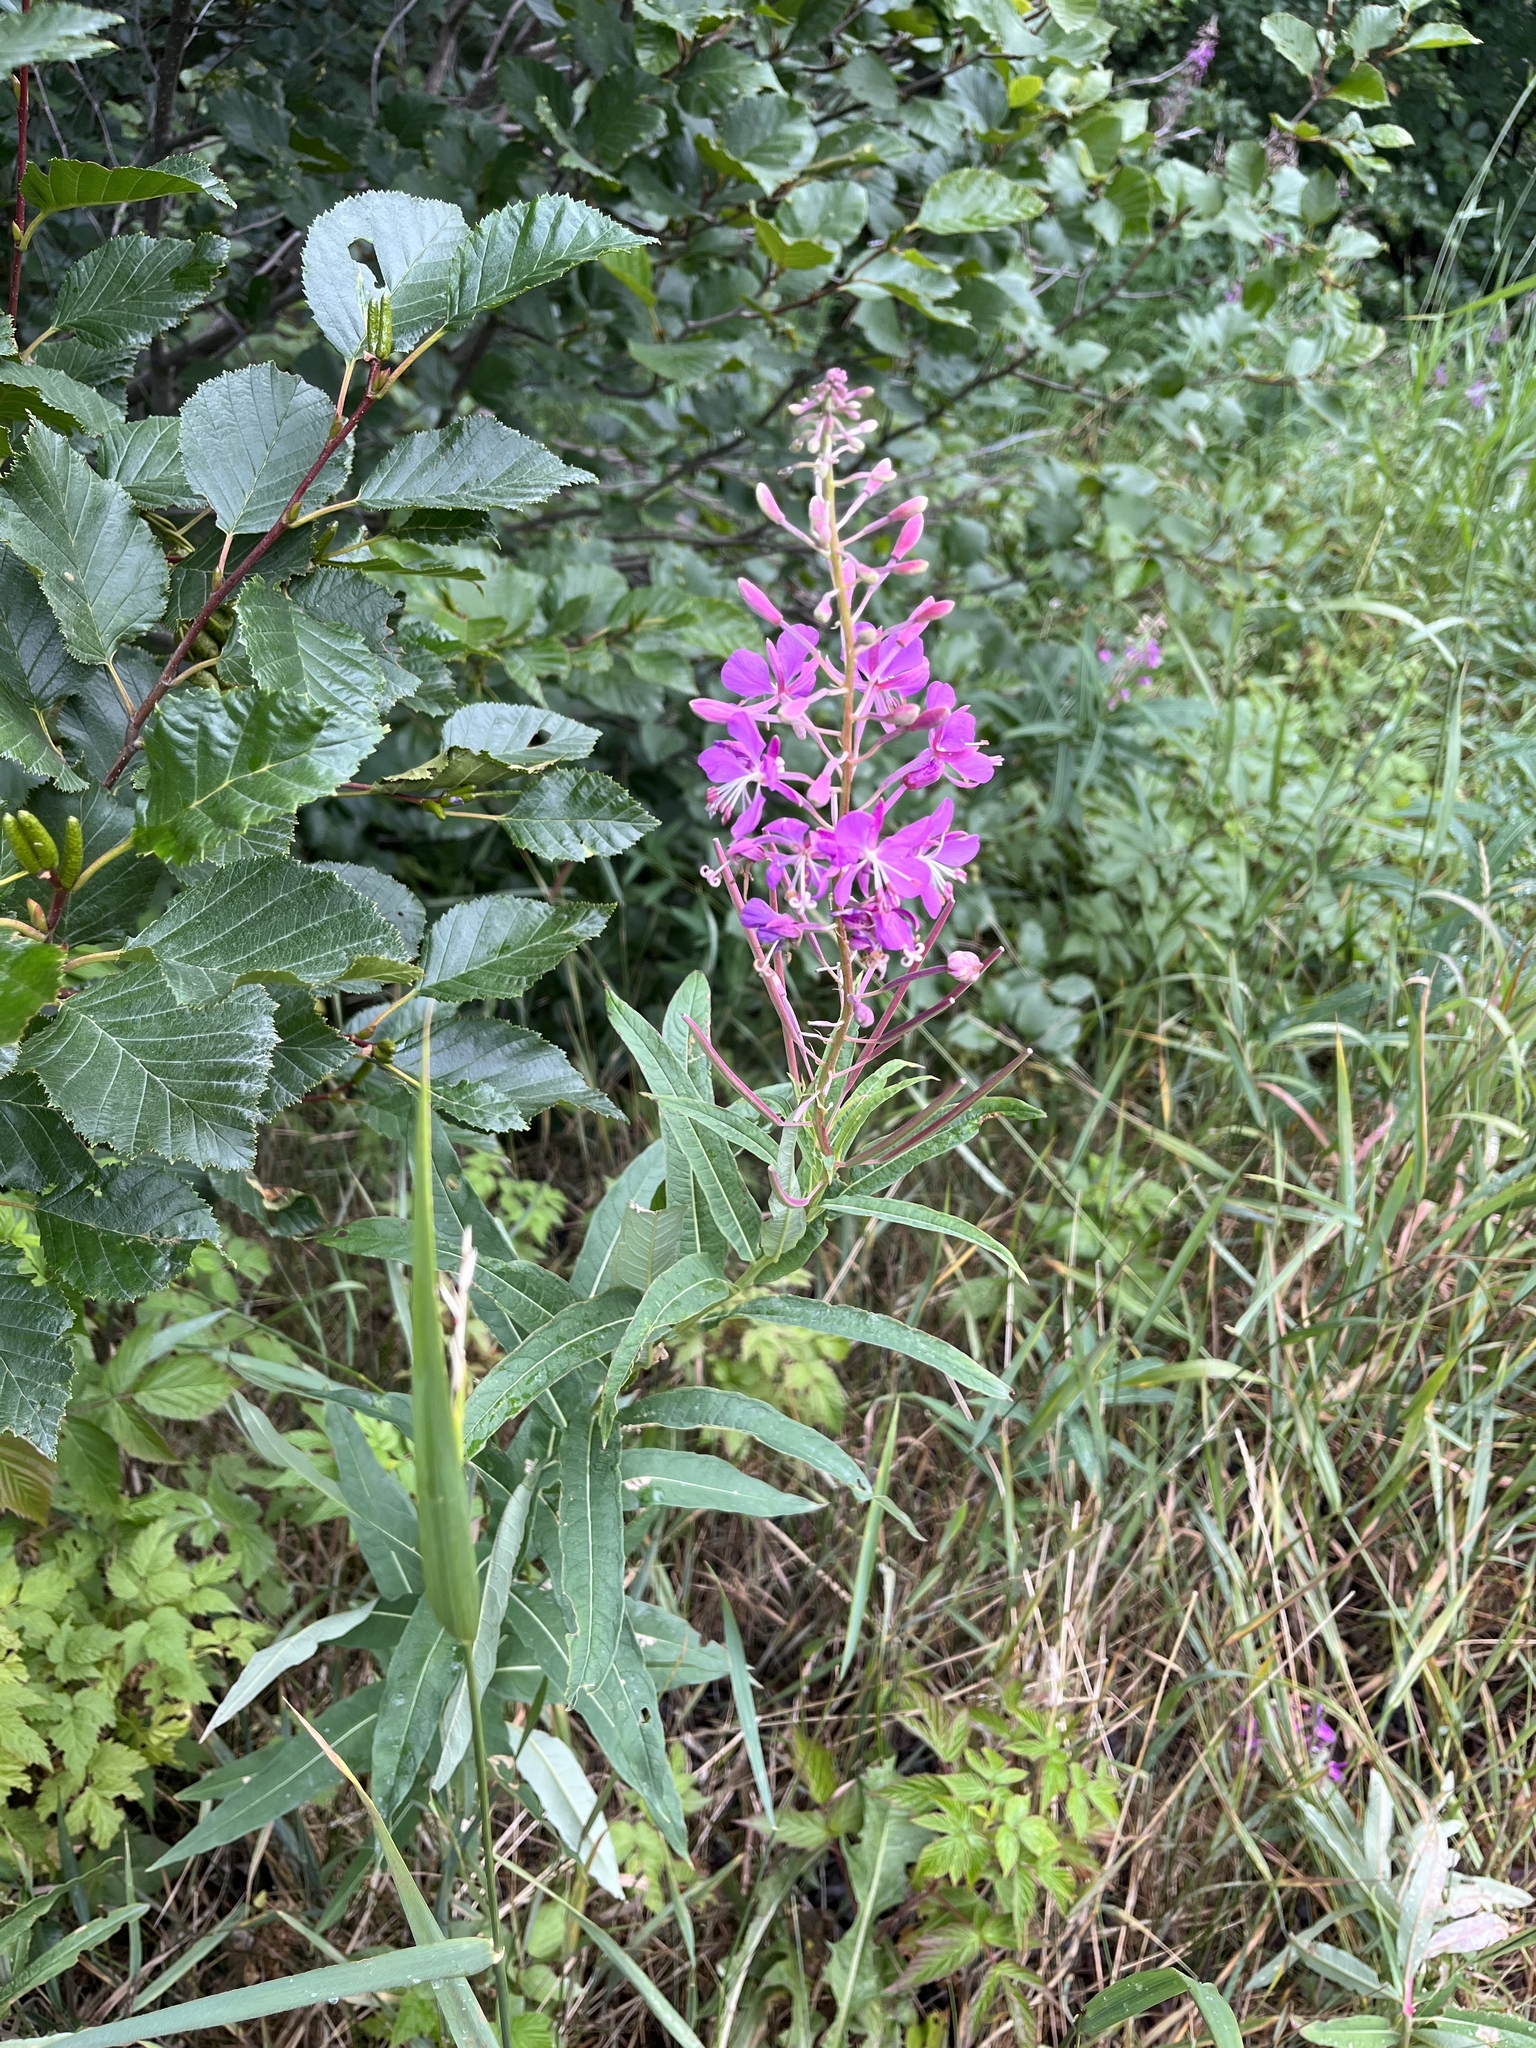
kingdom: Plantae
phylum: Tracheophyta
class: Magnoliopsida
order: Myrtales
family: Onagraceae
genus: Chamaenerion
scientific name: Chamaenerion angustifolium
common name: Fireweed
